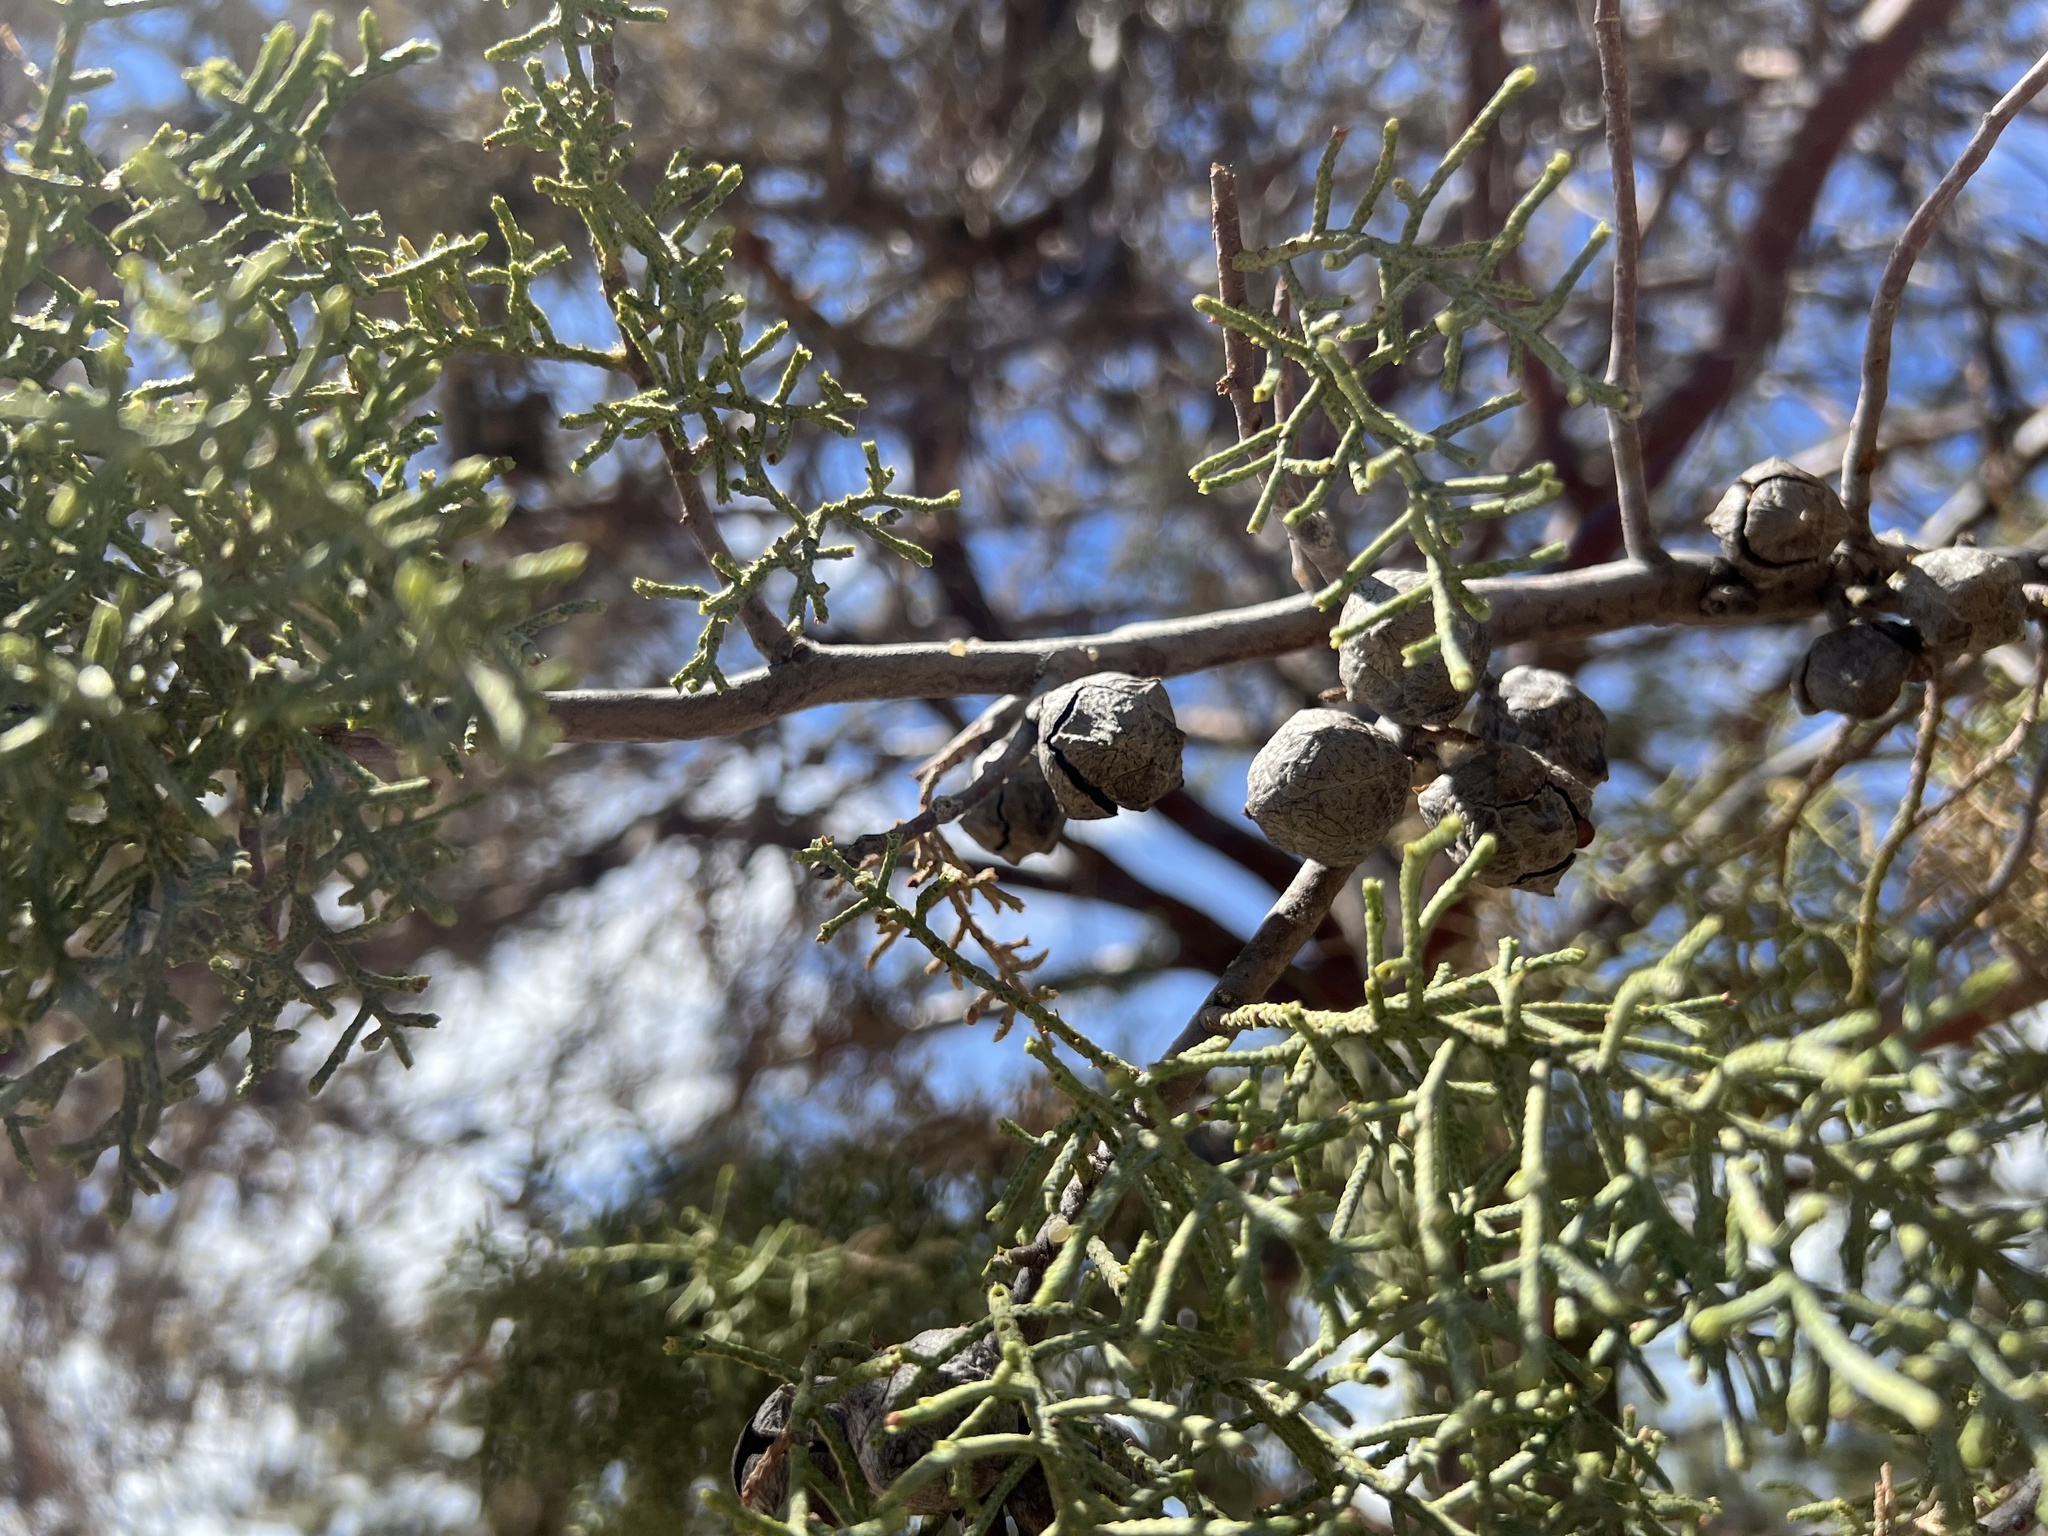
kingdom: Plantae
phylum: Tracheophyta
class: Pinopsida
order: Pinales
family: Cupressaceae
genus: Cupressus
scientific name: Cupressus arizonica
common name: Arizona cypress
